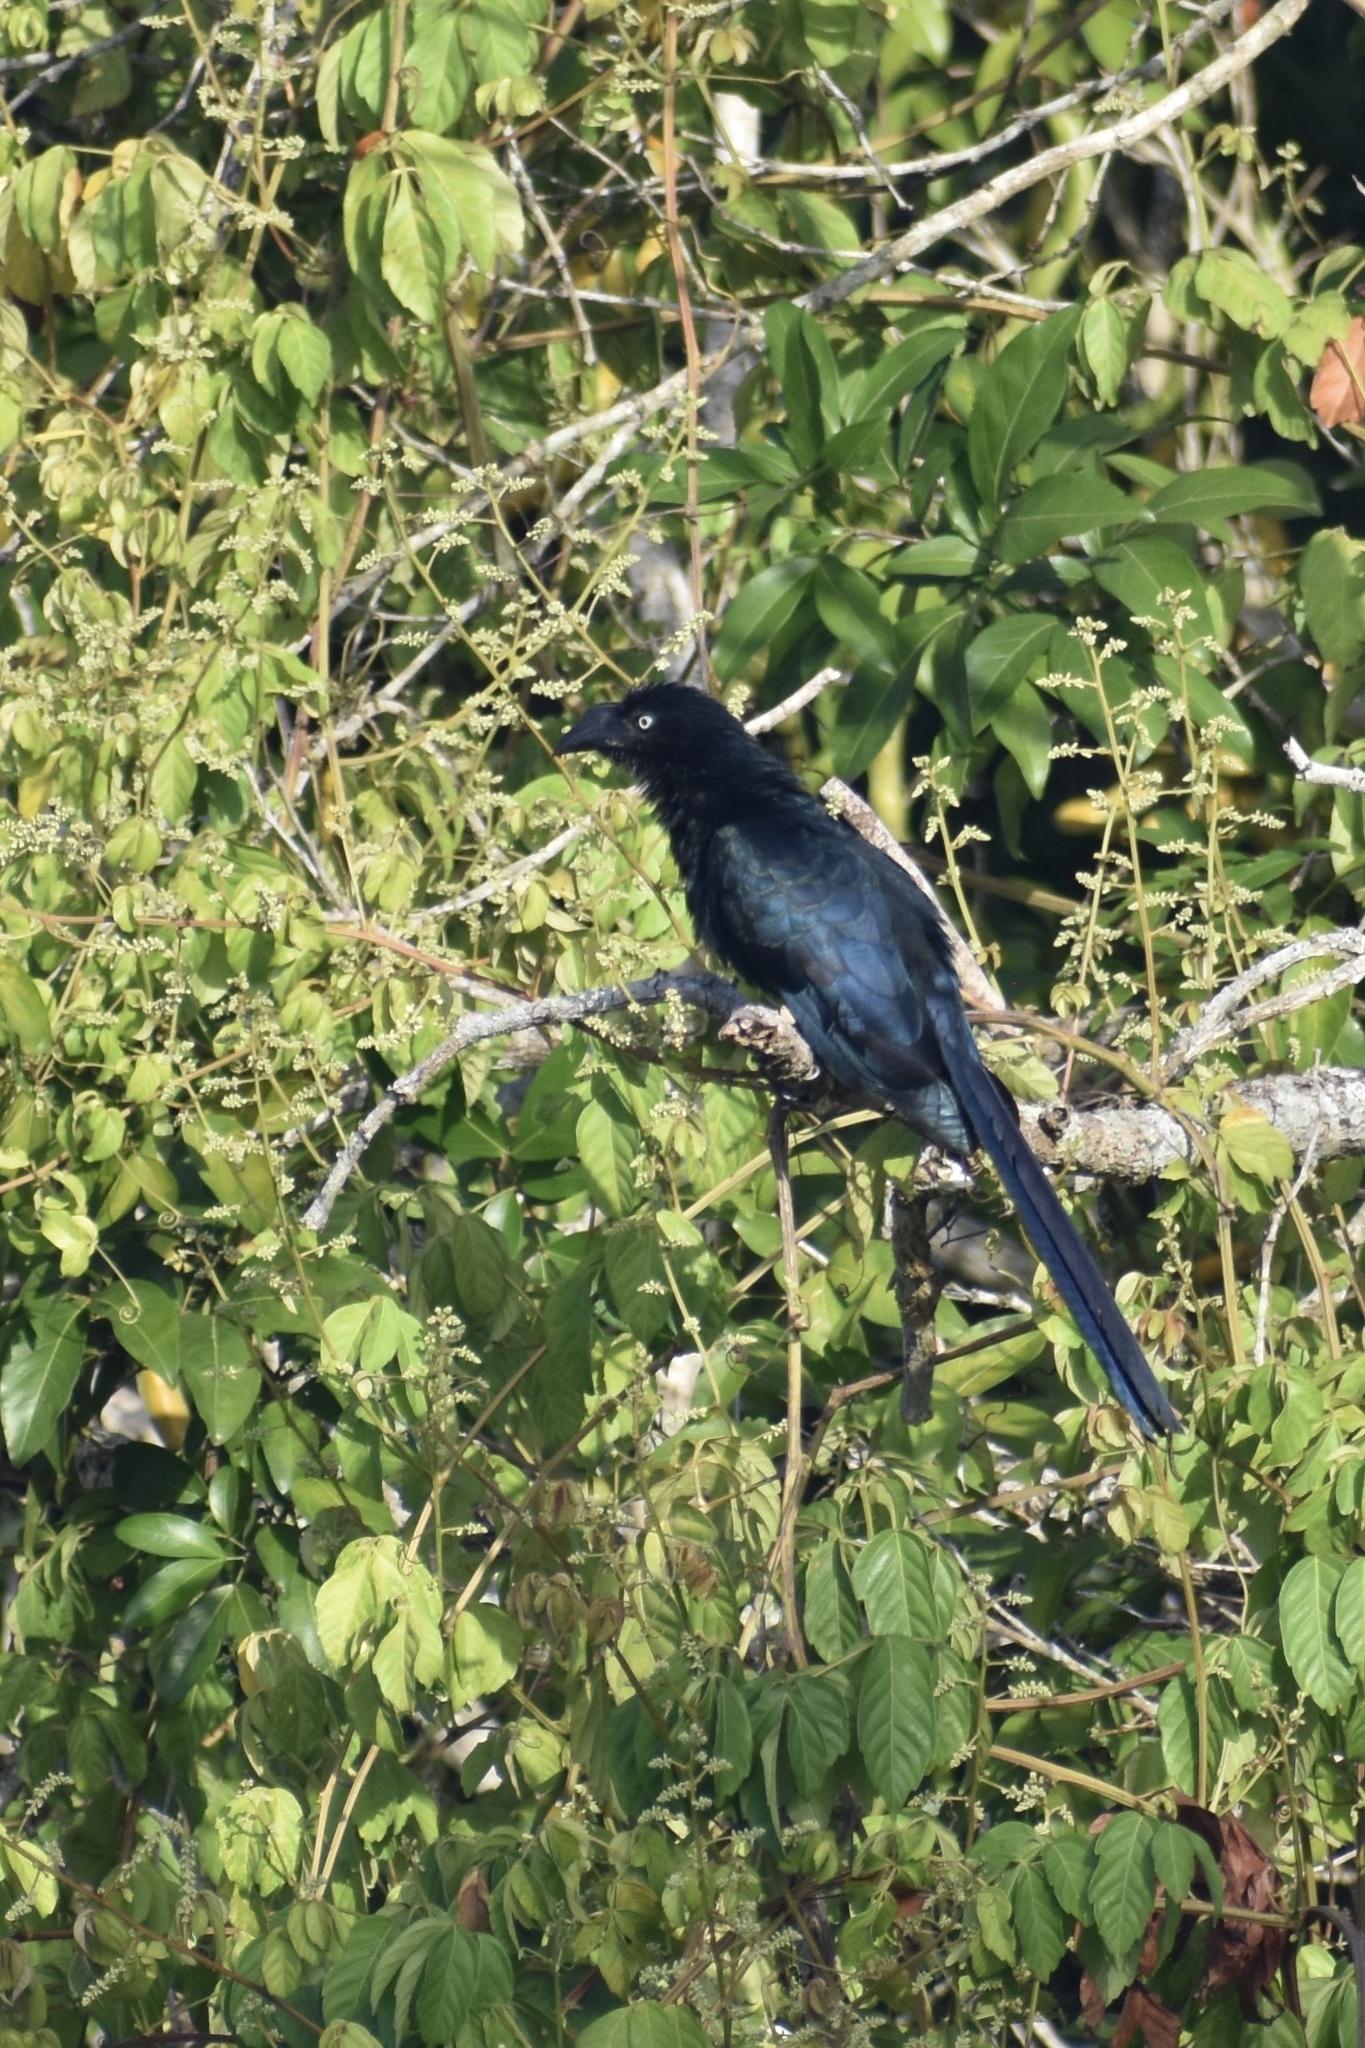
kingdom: Animalia
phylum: Chordata
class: Aves
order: Cuculiformes
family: Cuculidae
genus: Crotophaga
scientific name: Crotophaga major
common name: Greater ani
